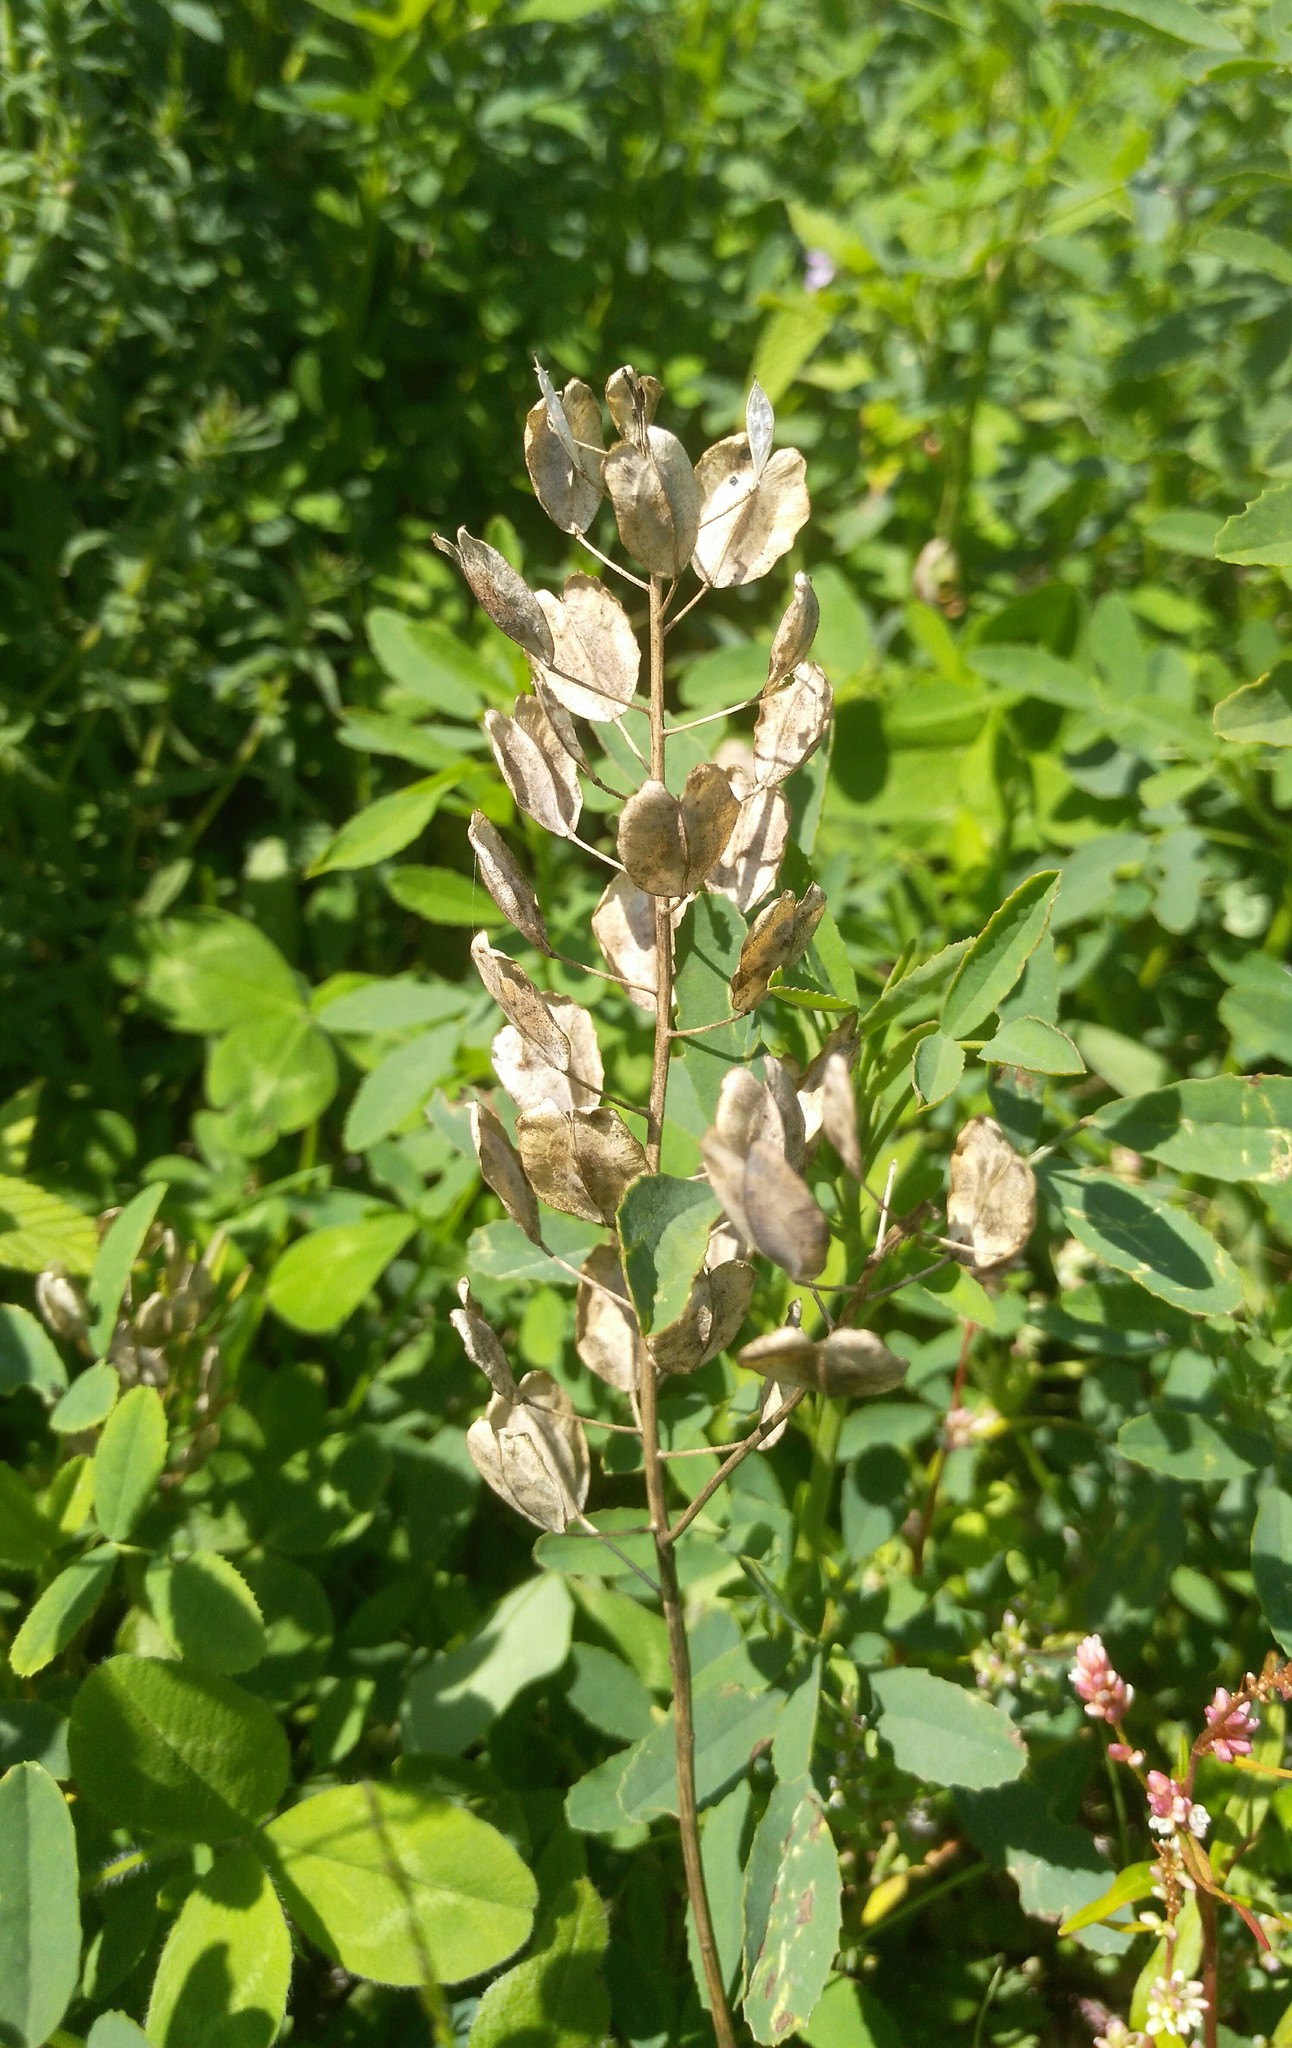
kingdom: Plantae
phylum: Tracheophyta
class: Magnoliopsida
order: Brassicales
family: Brassicaceae
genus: Thlaspi
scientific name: Thlaspi arvense
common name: Field pennycress
